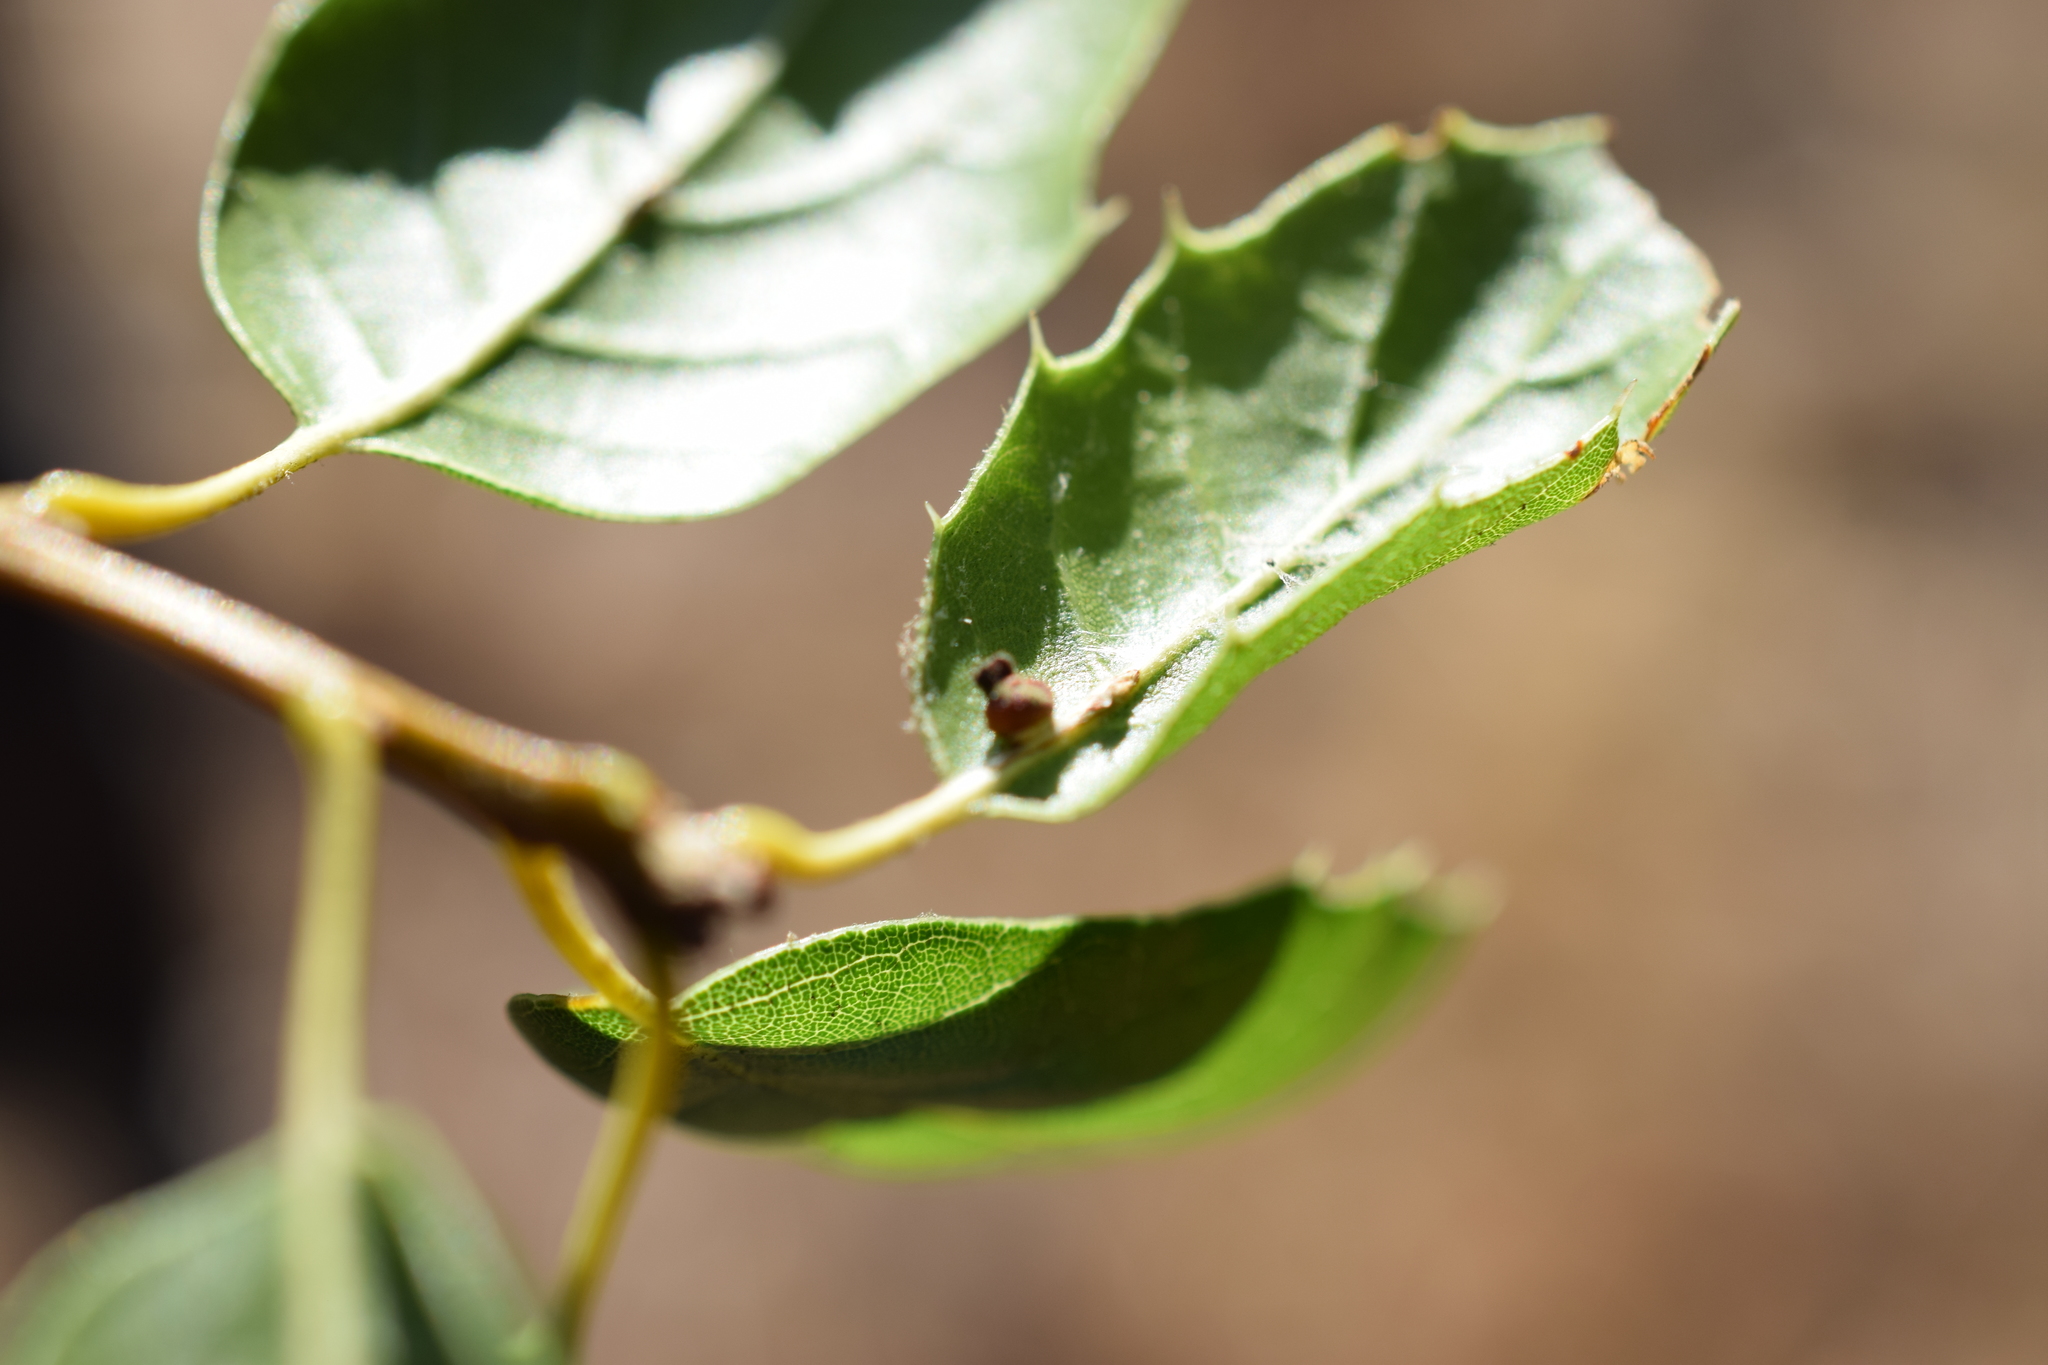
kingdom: Animalia
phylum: Arthropoda
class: Insecta
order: Hymenoptera
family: Cynipidae
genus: Callirhytis
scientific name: Callirhytis
